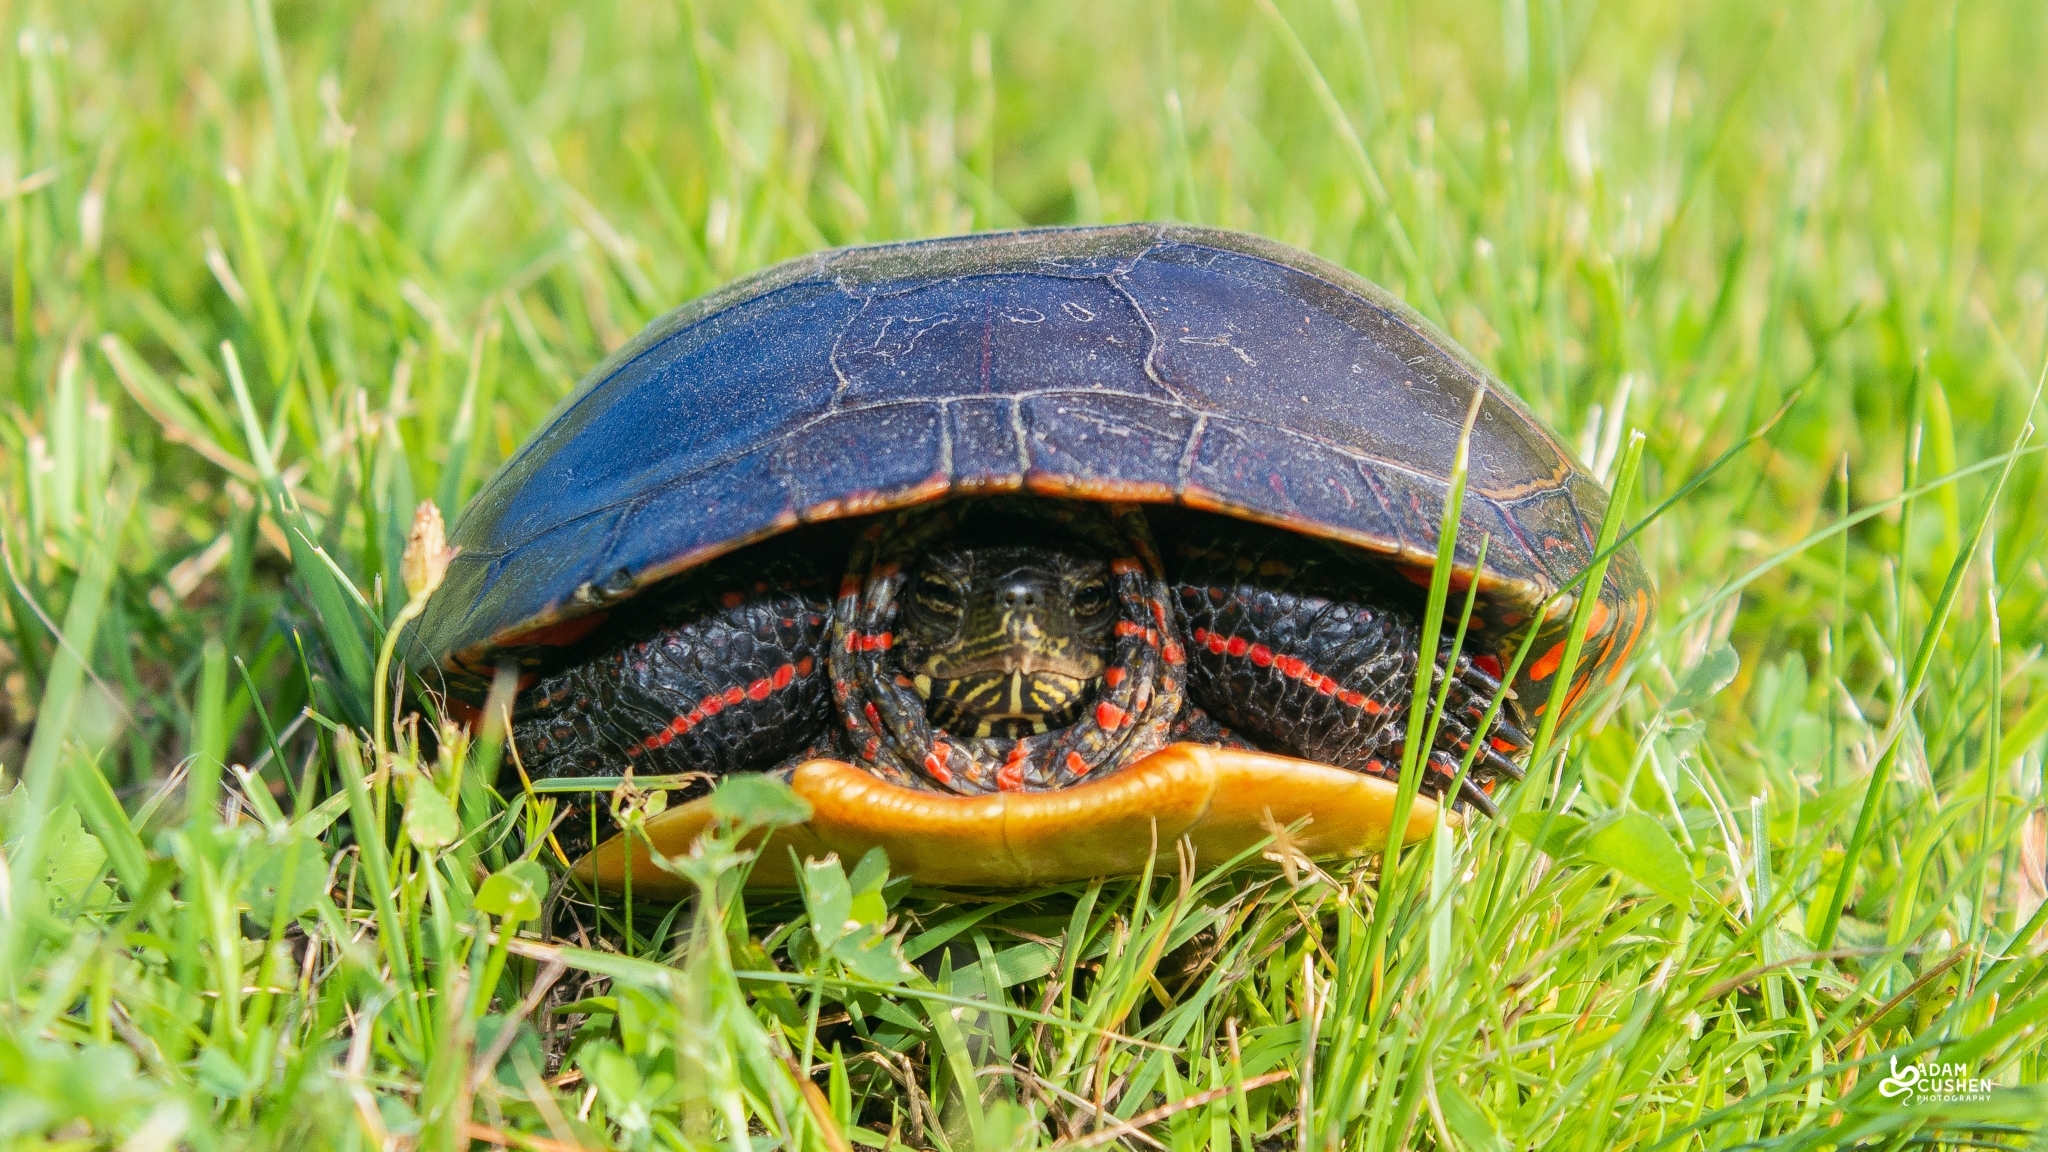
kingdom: Animalia
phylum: Chordata
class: Testudines
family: Emydidae
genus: Chrysemys
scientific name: Chrysemys picta
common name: Painted turtle
